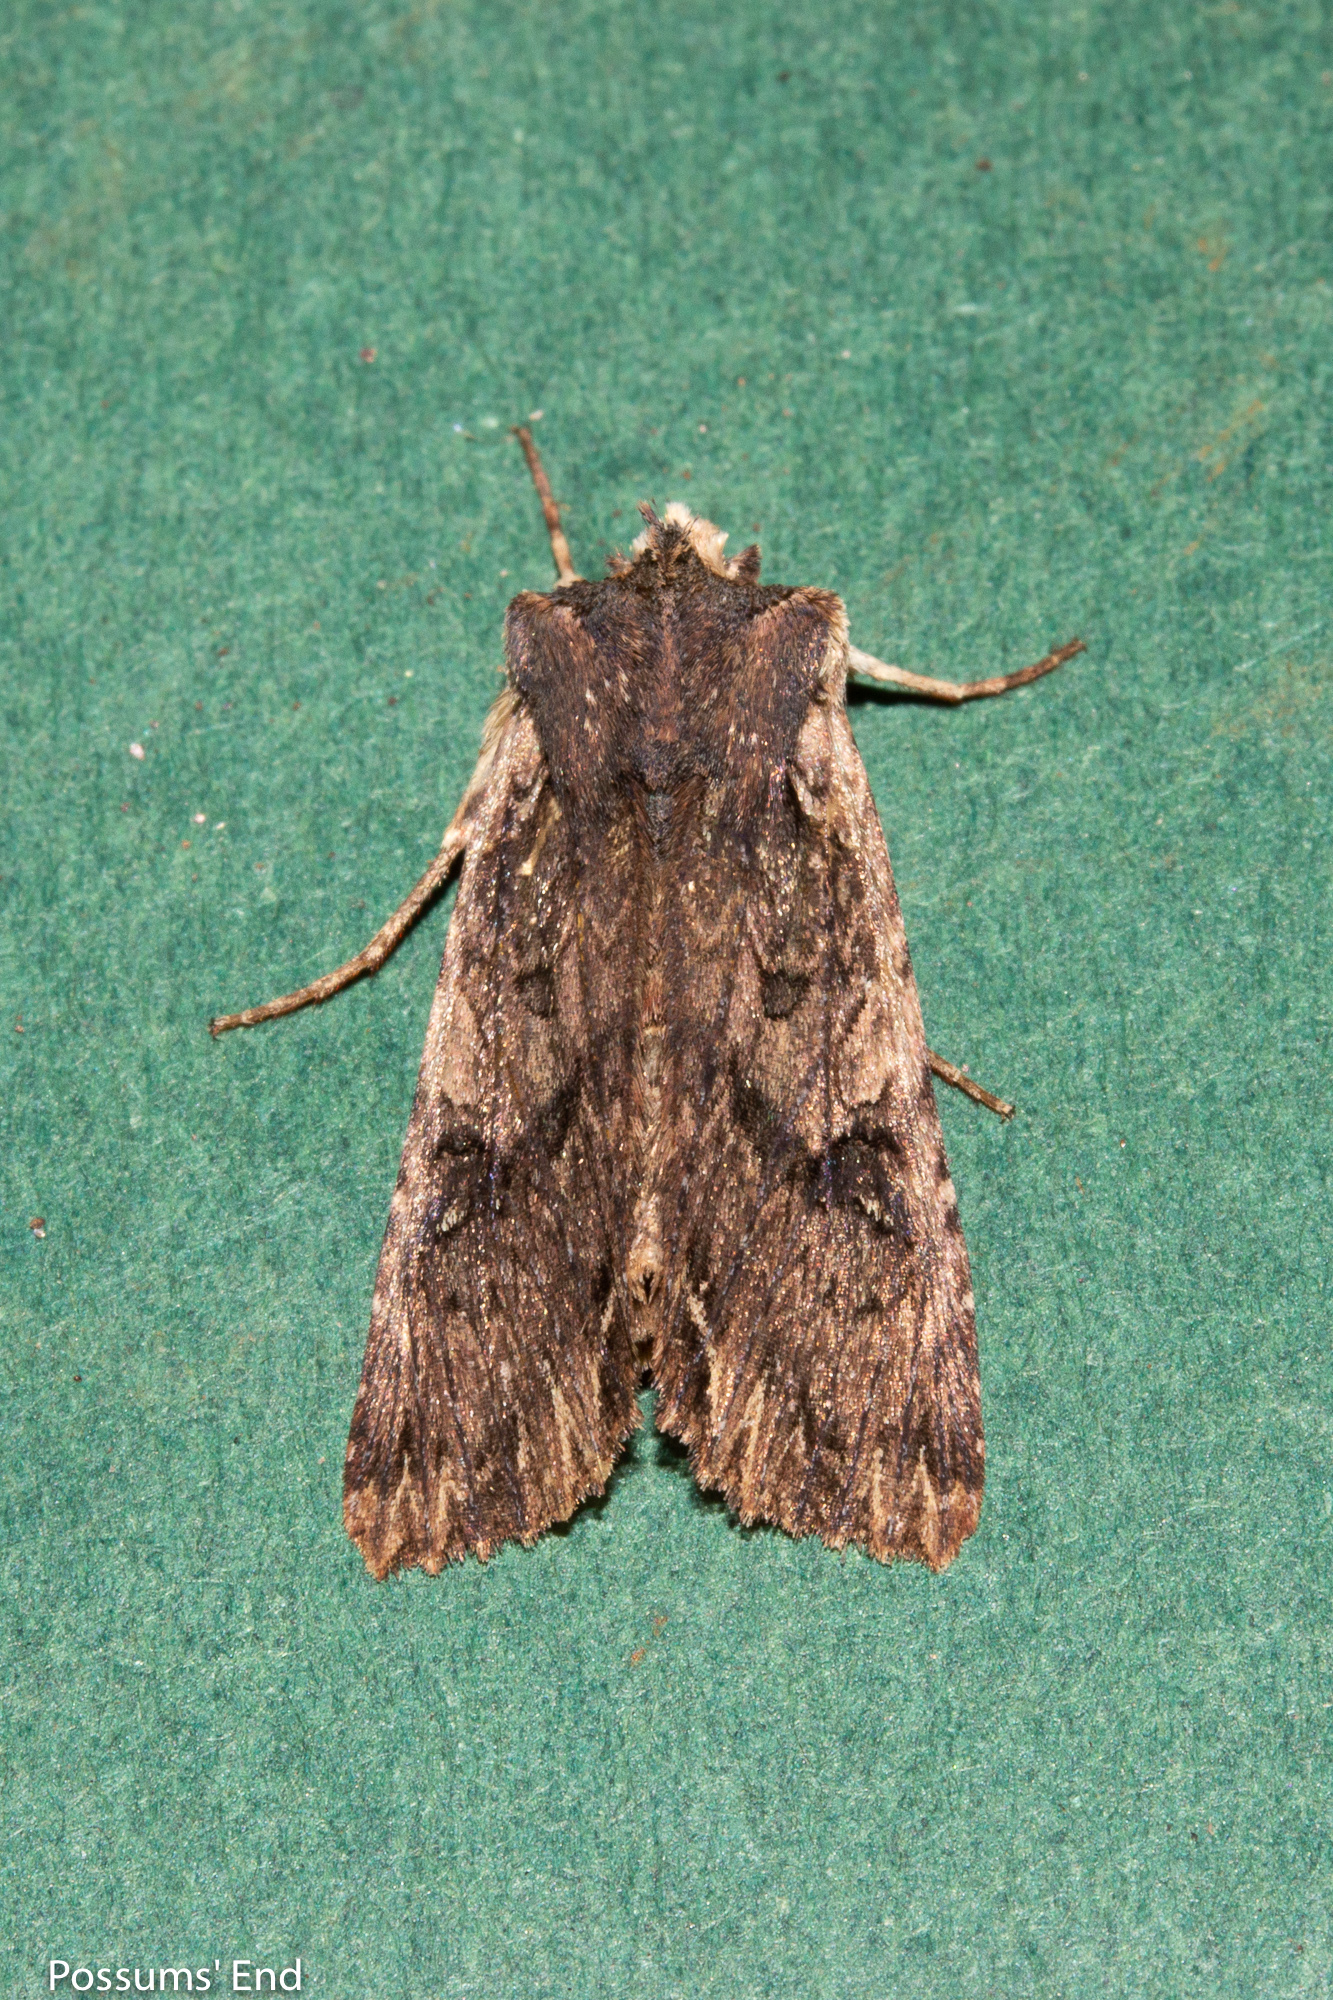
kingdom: Animalia
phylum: Arthropoda
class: Insecta
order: Lepidoptera
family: Noctuidae
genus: Meterana
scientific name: Meterana alcyone
